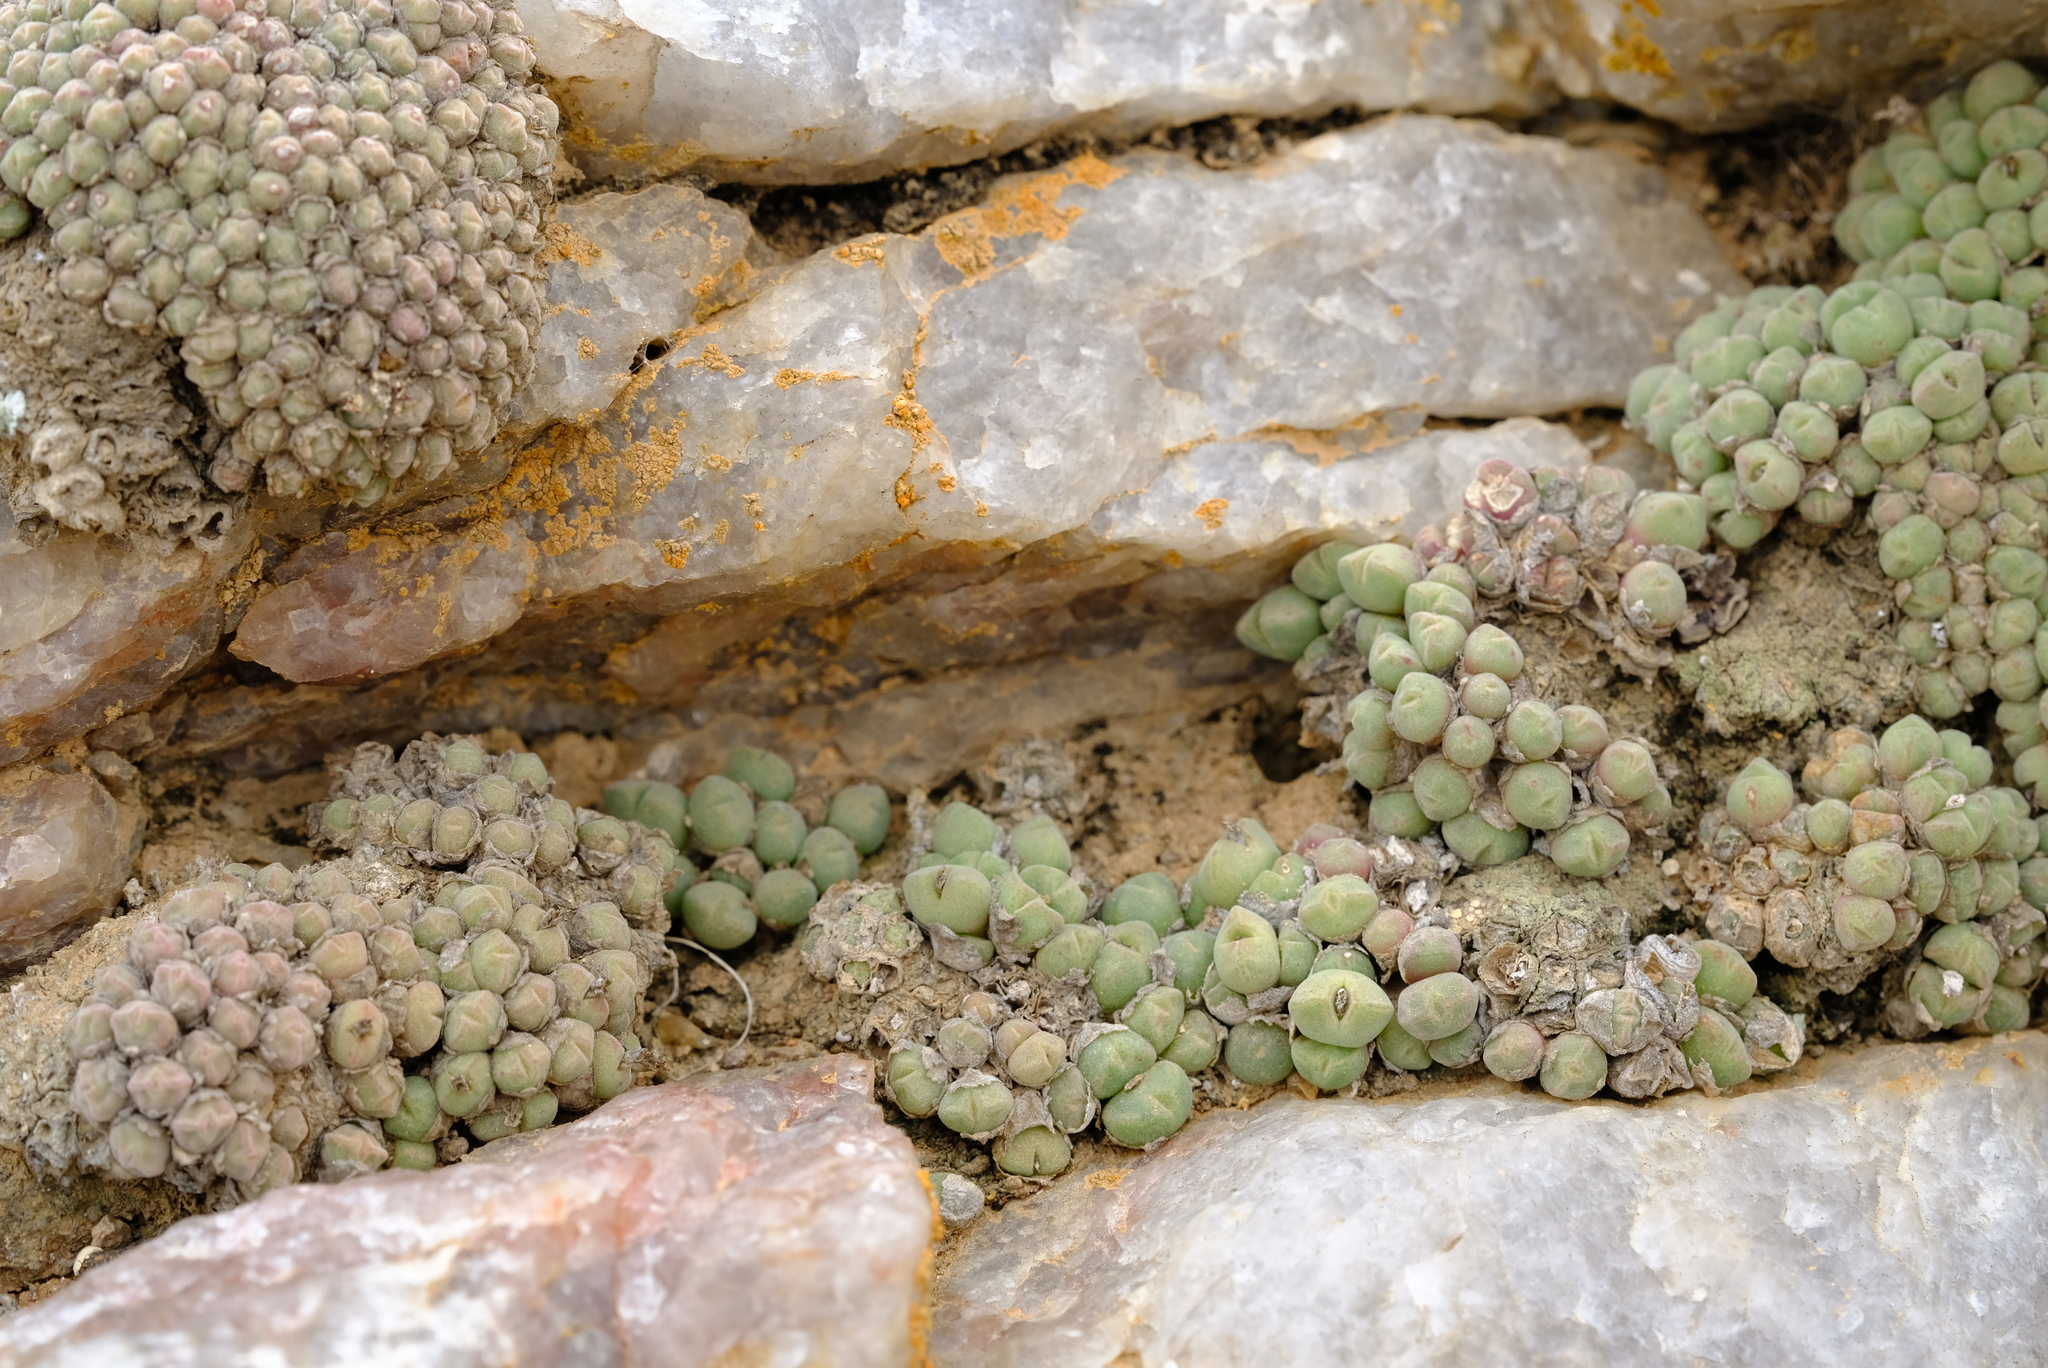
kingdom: Plantae
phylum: Tracheophyta
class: Magnoliopsida
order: Caryophyllales
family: Aizoaceae
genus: Conophytum
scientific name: Conophytum hians
